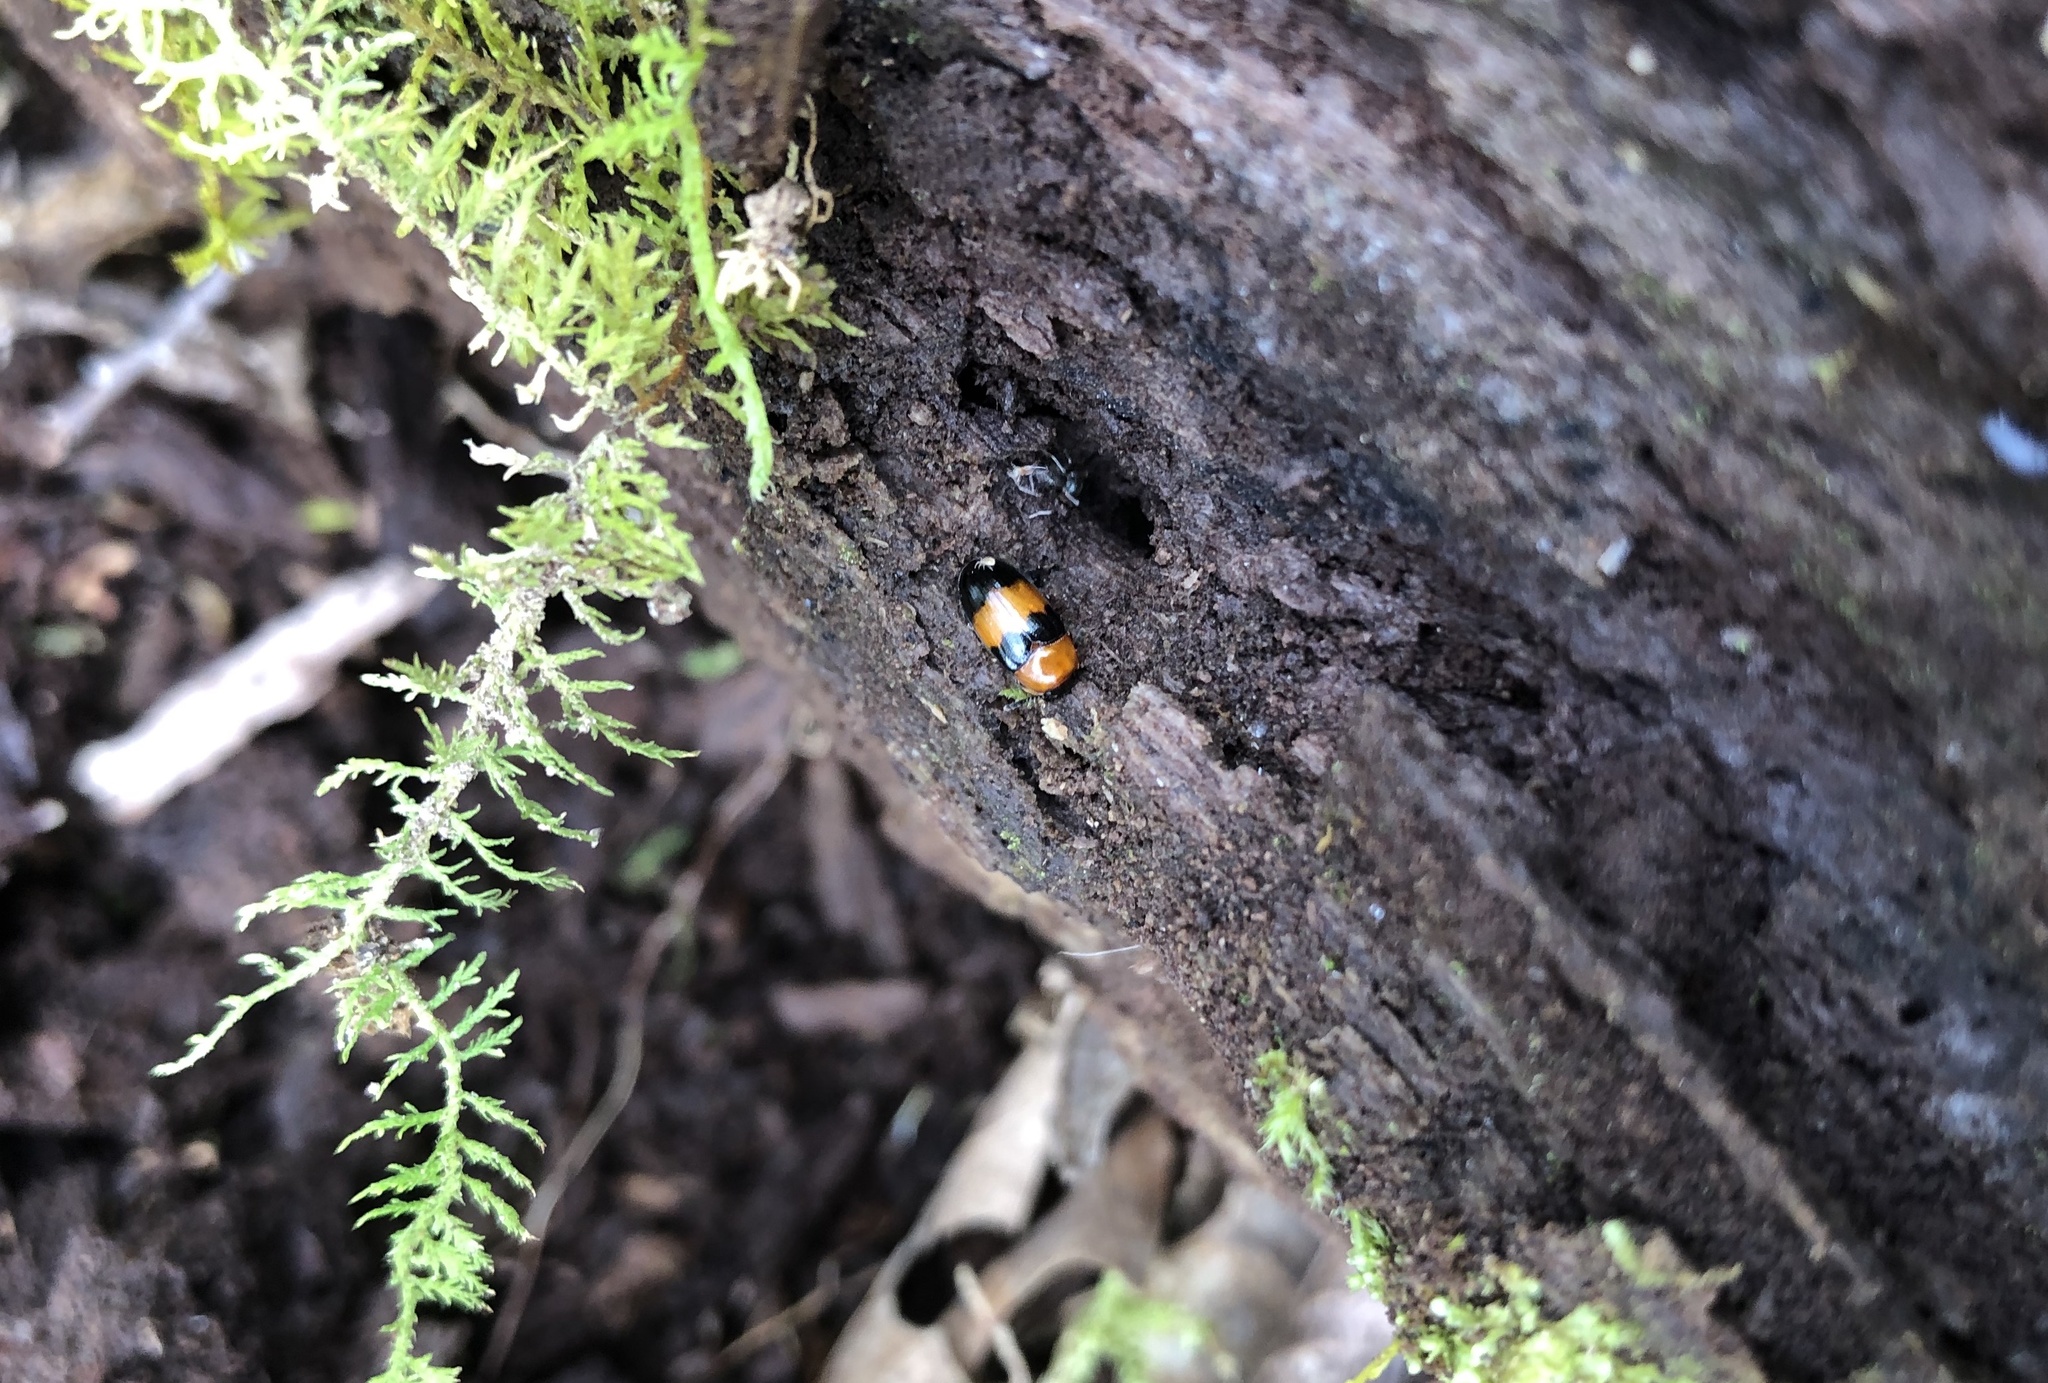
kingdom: Animalia
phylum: Arthropoda
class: Insecta
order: Coleoptera
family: Erotylidae
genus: Triplax
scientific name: Triplax festiva
